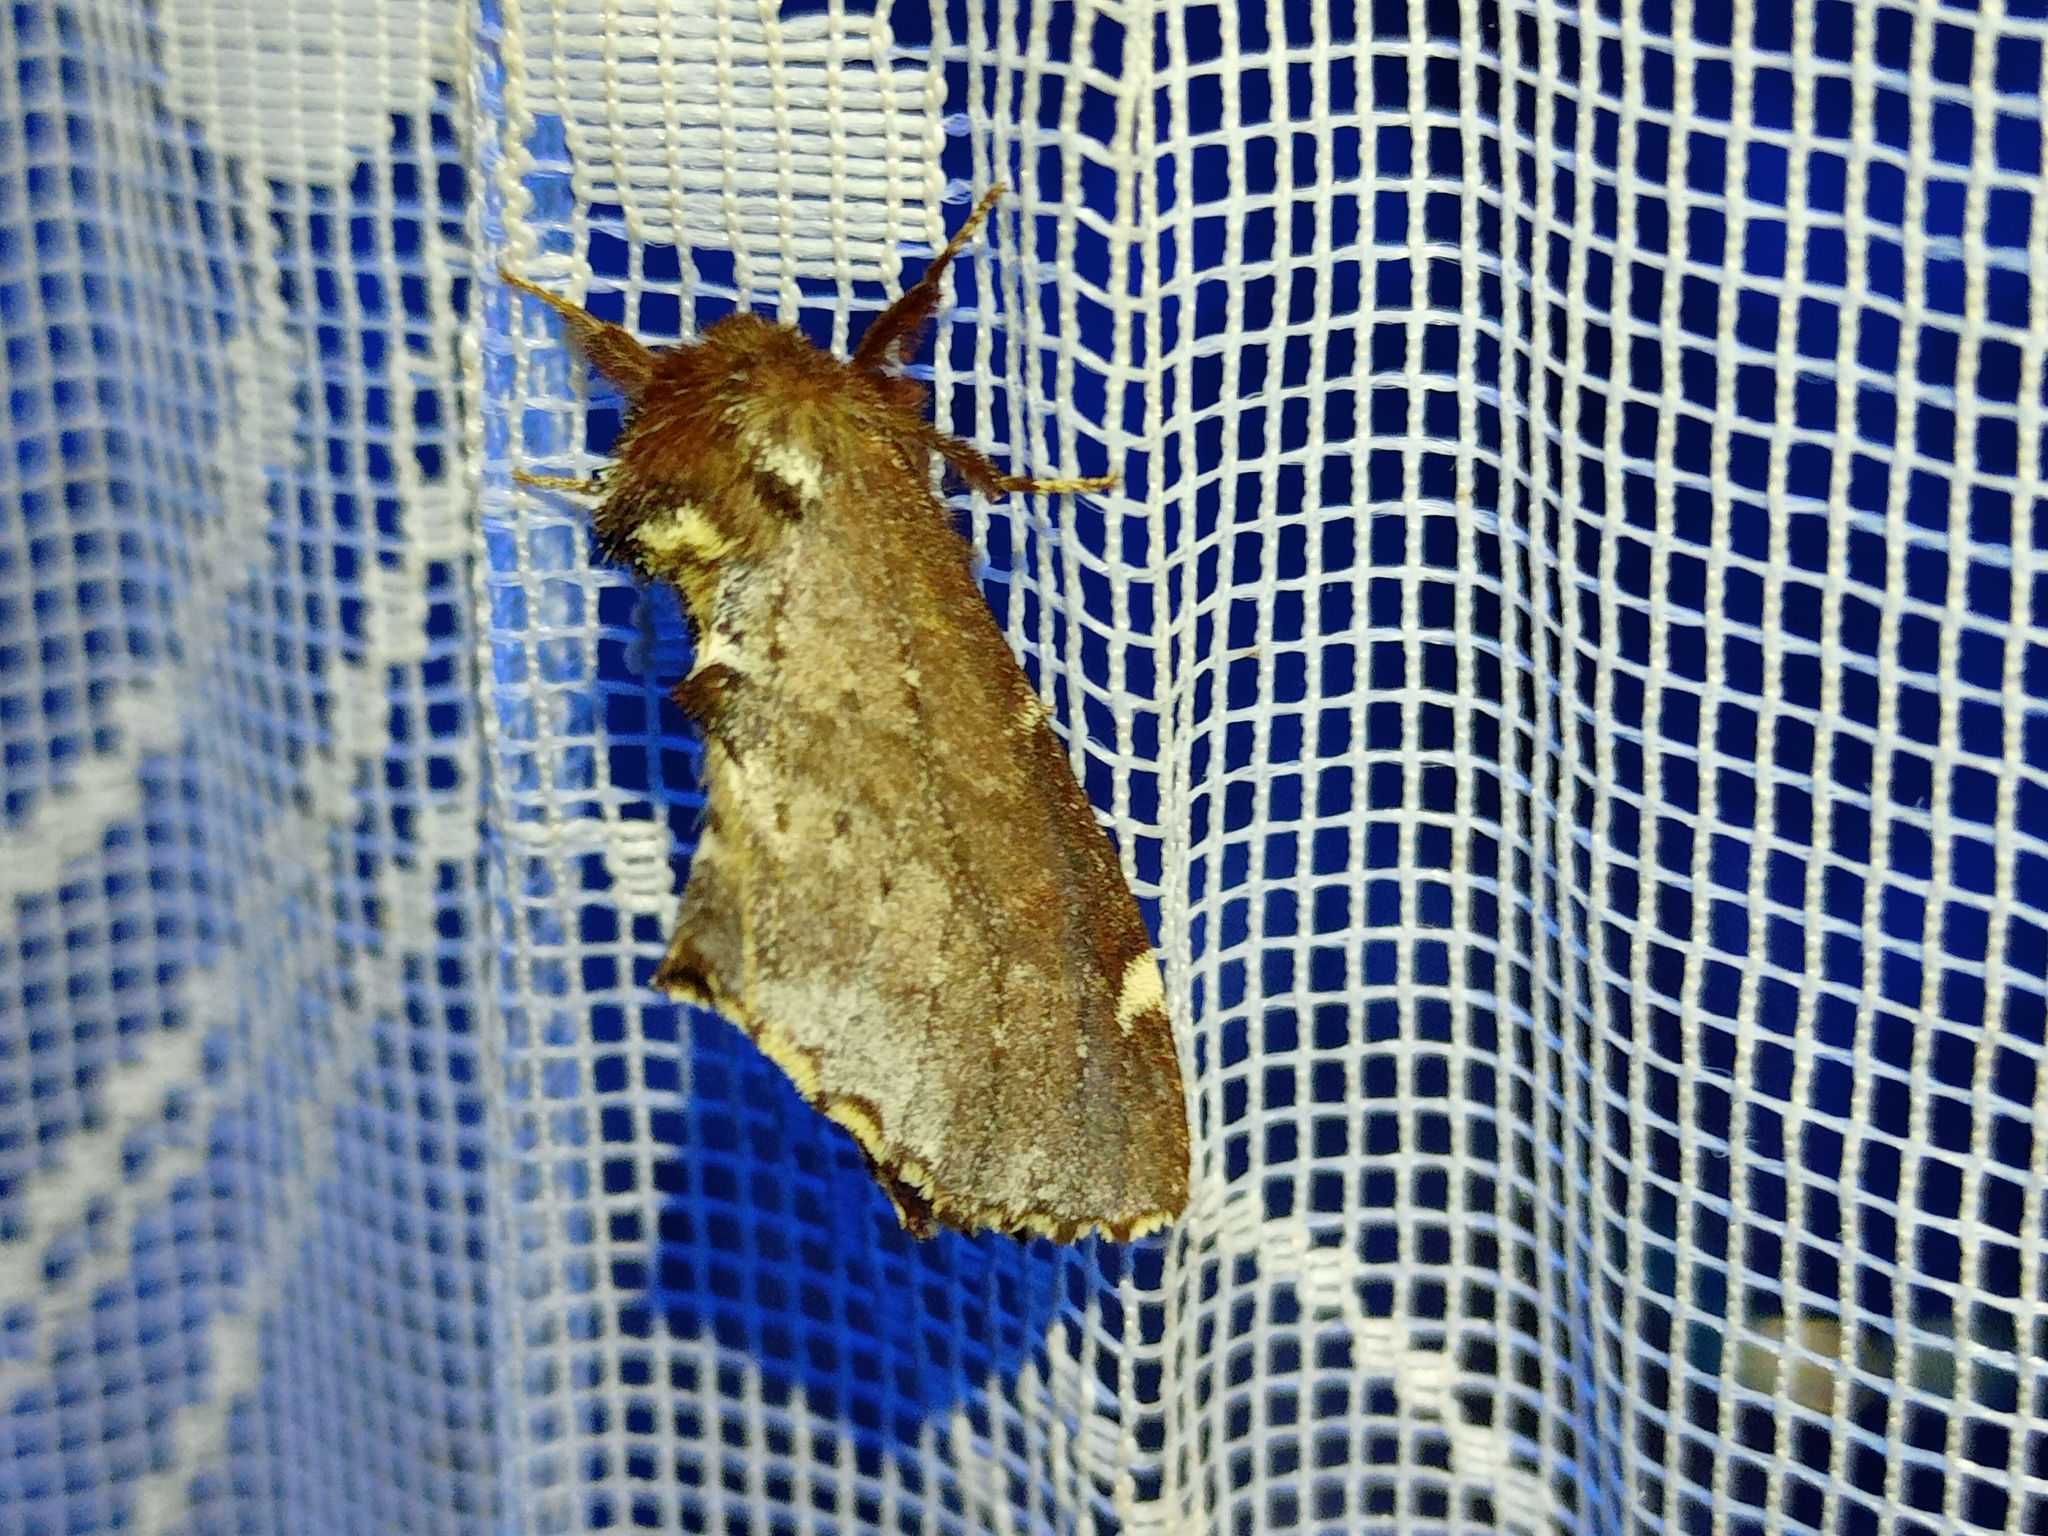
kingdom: Animalia
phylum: Arthropoda
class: Insecta
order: Lepidoptera
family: Notodontidae
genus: Odontosia
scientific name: Odontosia carmelita
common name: Scarce prominent
